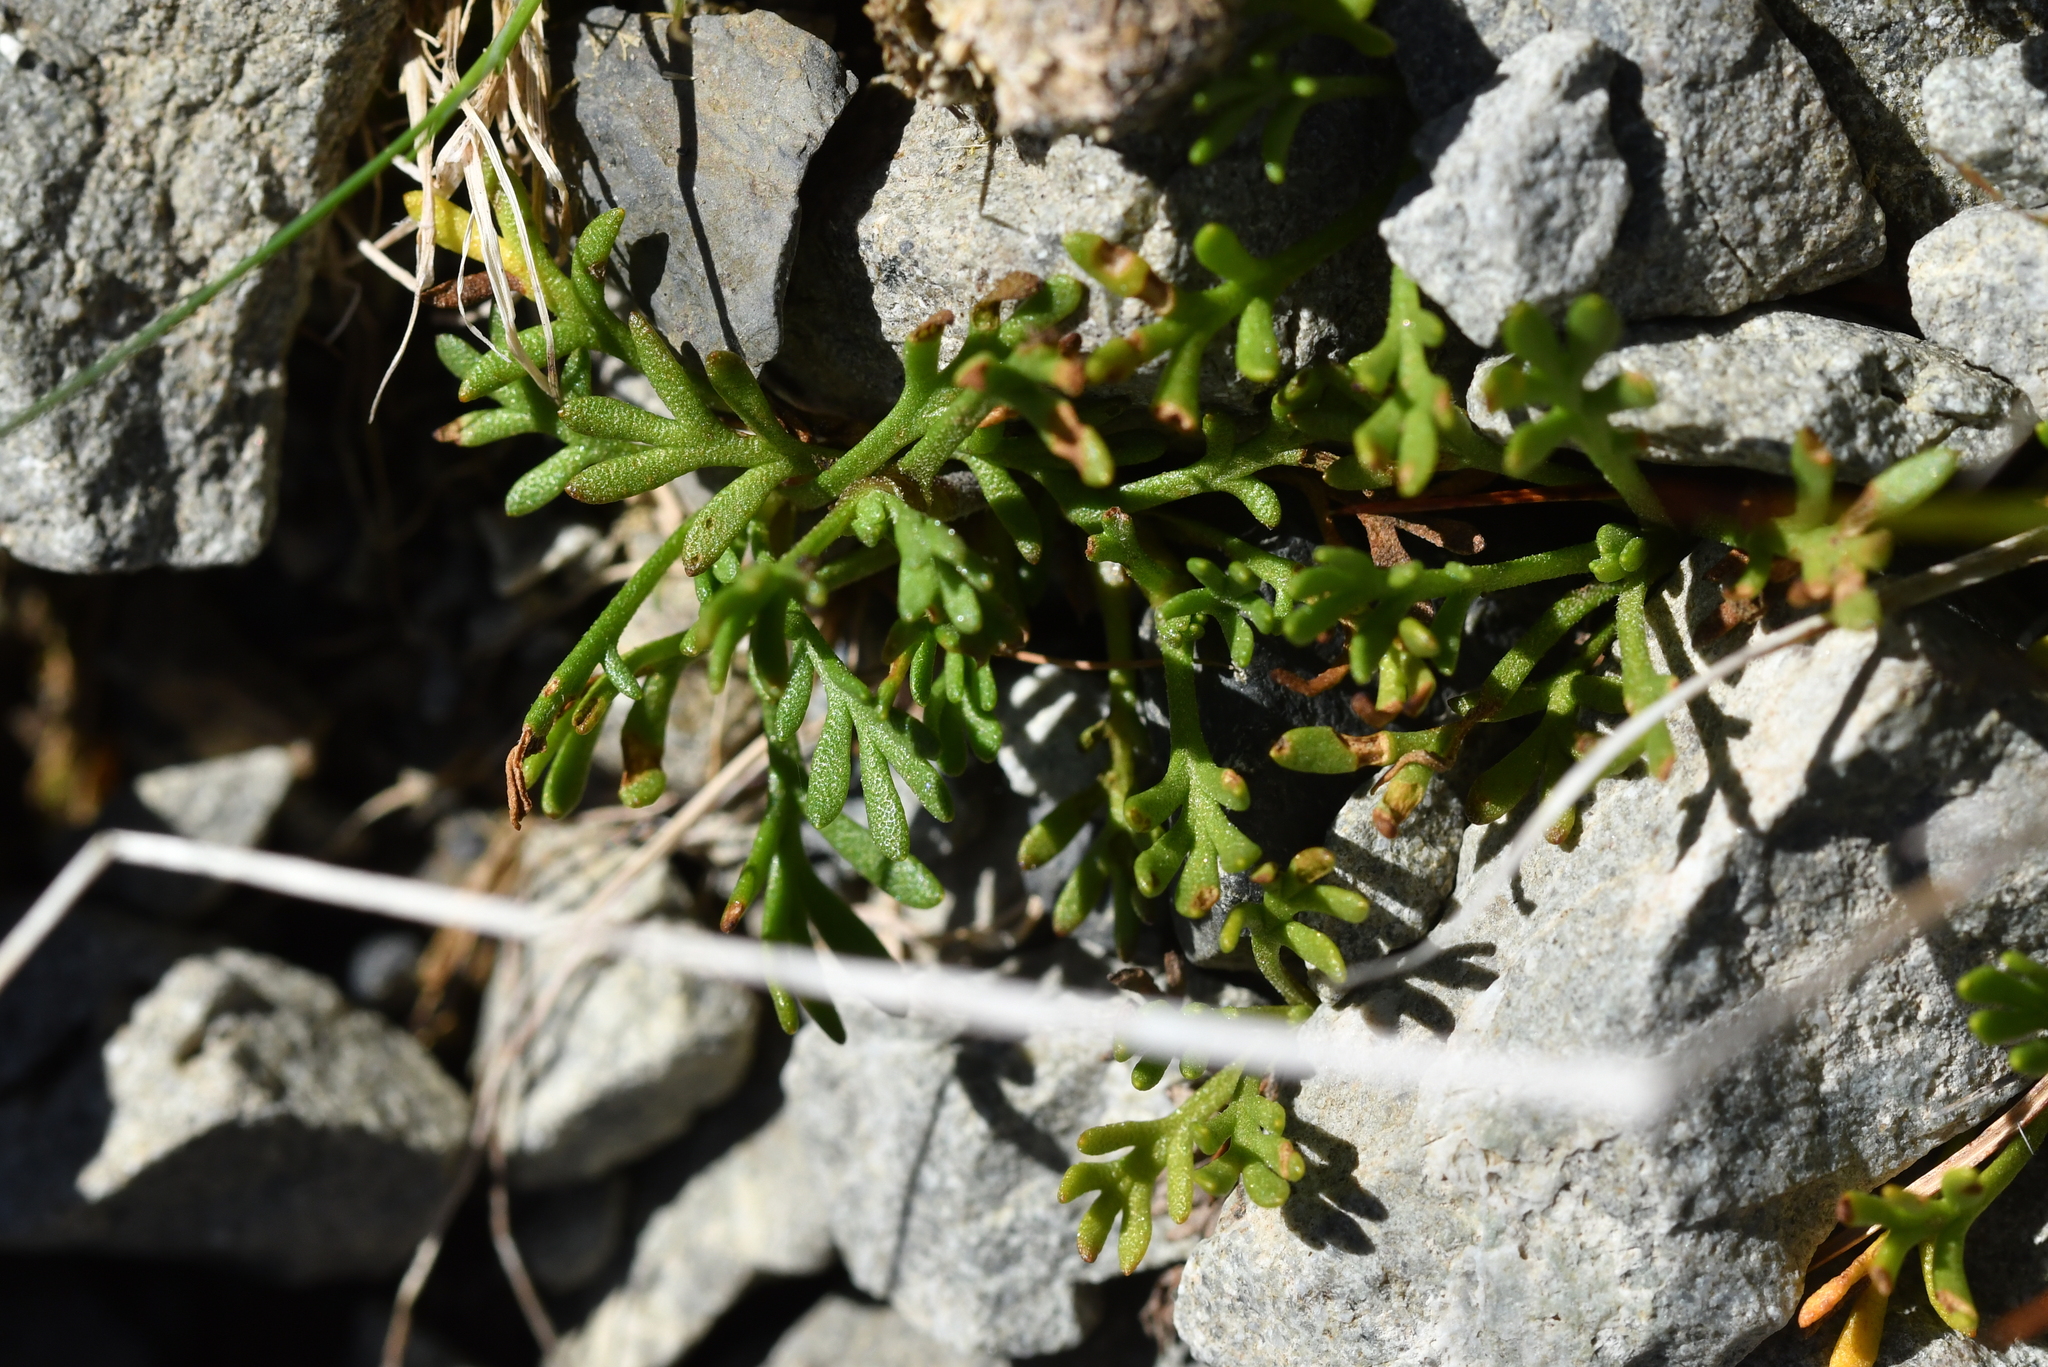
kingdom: Plantae
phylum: Tracheophyta
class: Magnoliopsida
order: Asterales
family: Asteraceae
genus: Leptinella
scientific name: Leptinella pyrethrifolia
